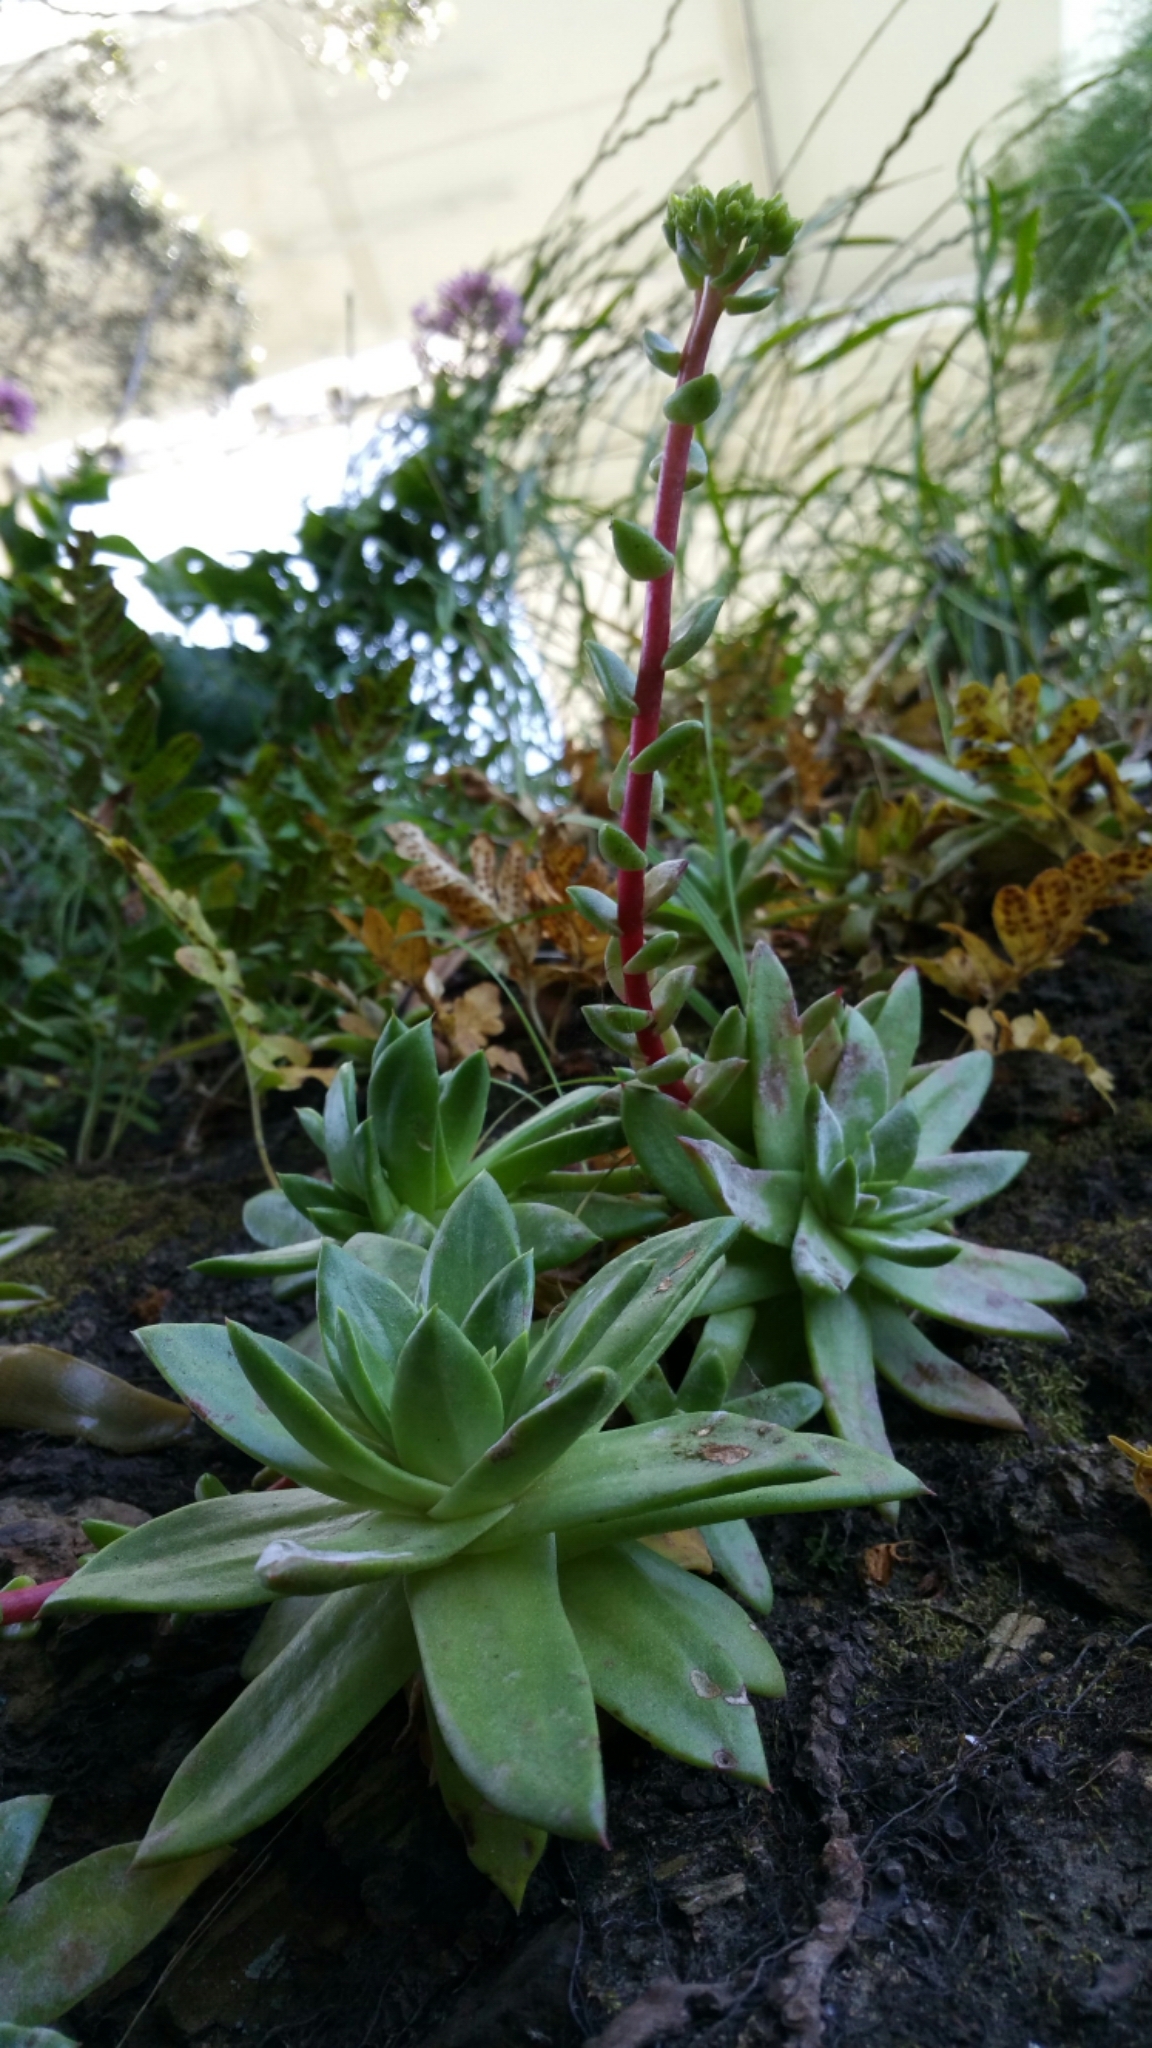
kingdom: Plantae
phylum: Tracheophyta
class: Magnoliopsida
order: Saxifragales
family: Crassulaceae
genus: Dudleya
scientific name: Dudleya farinosa
